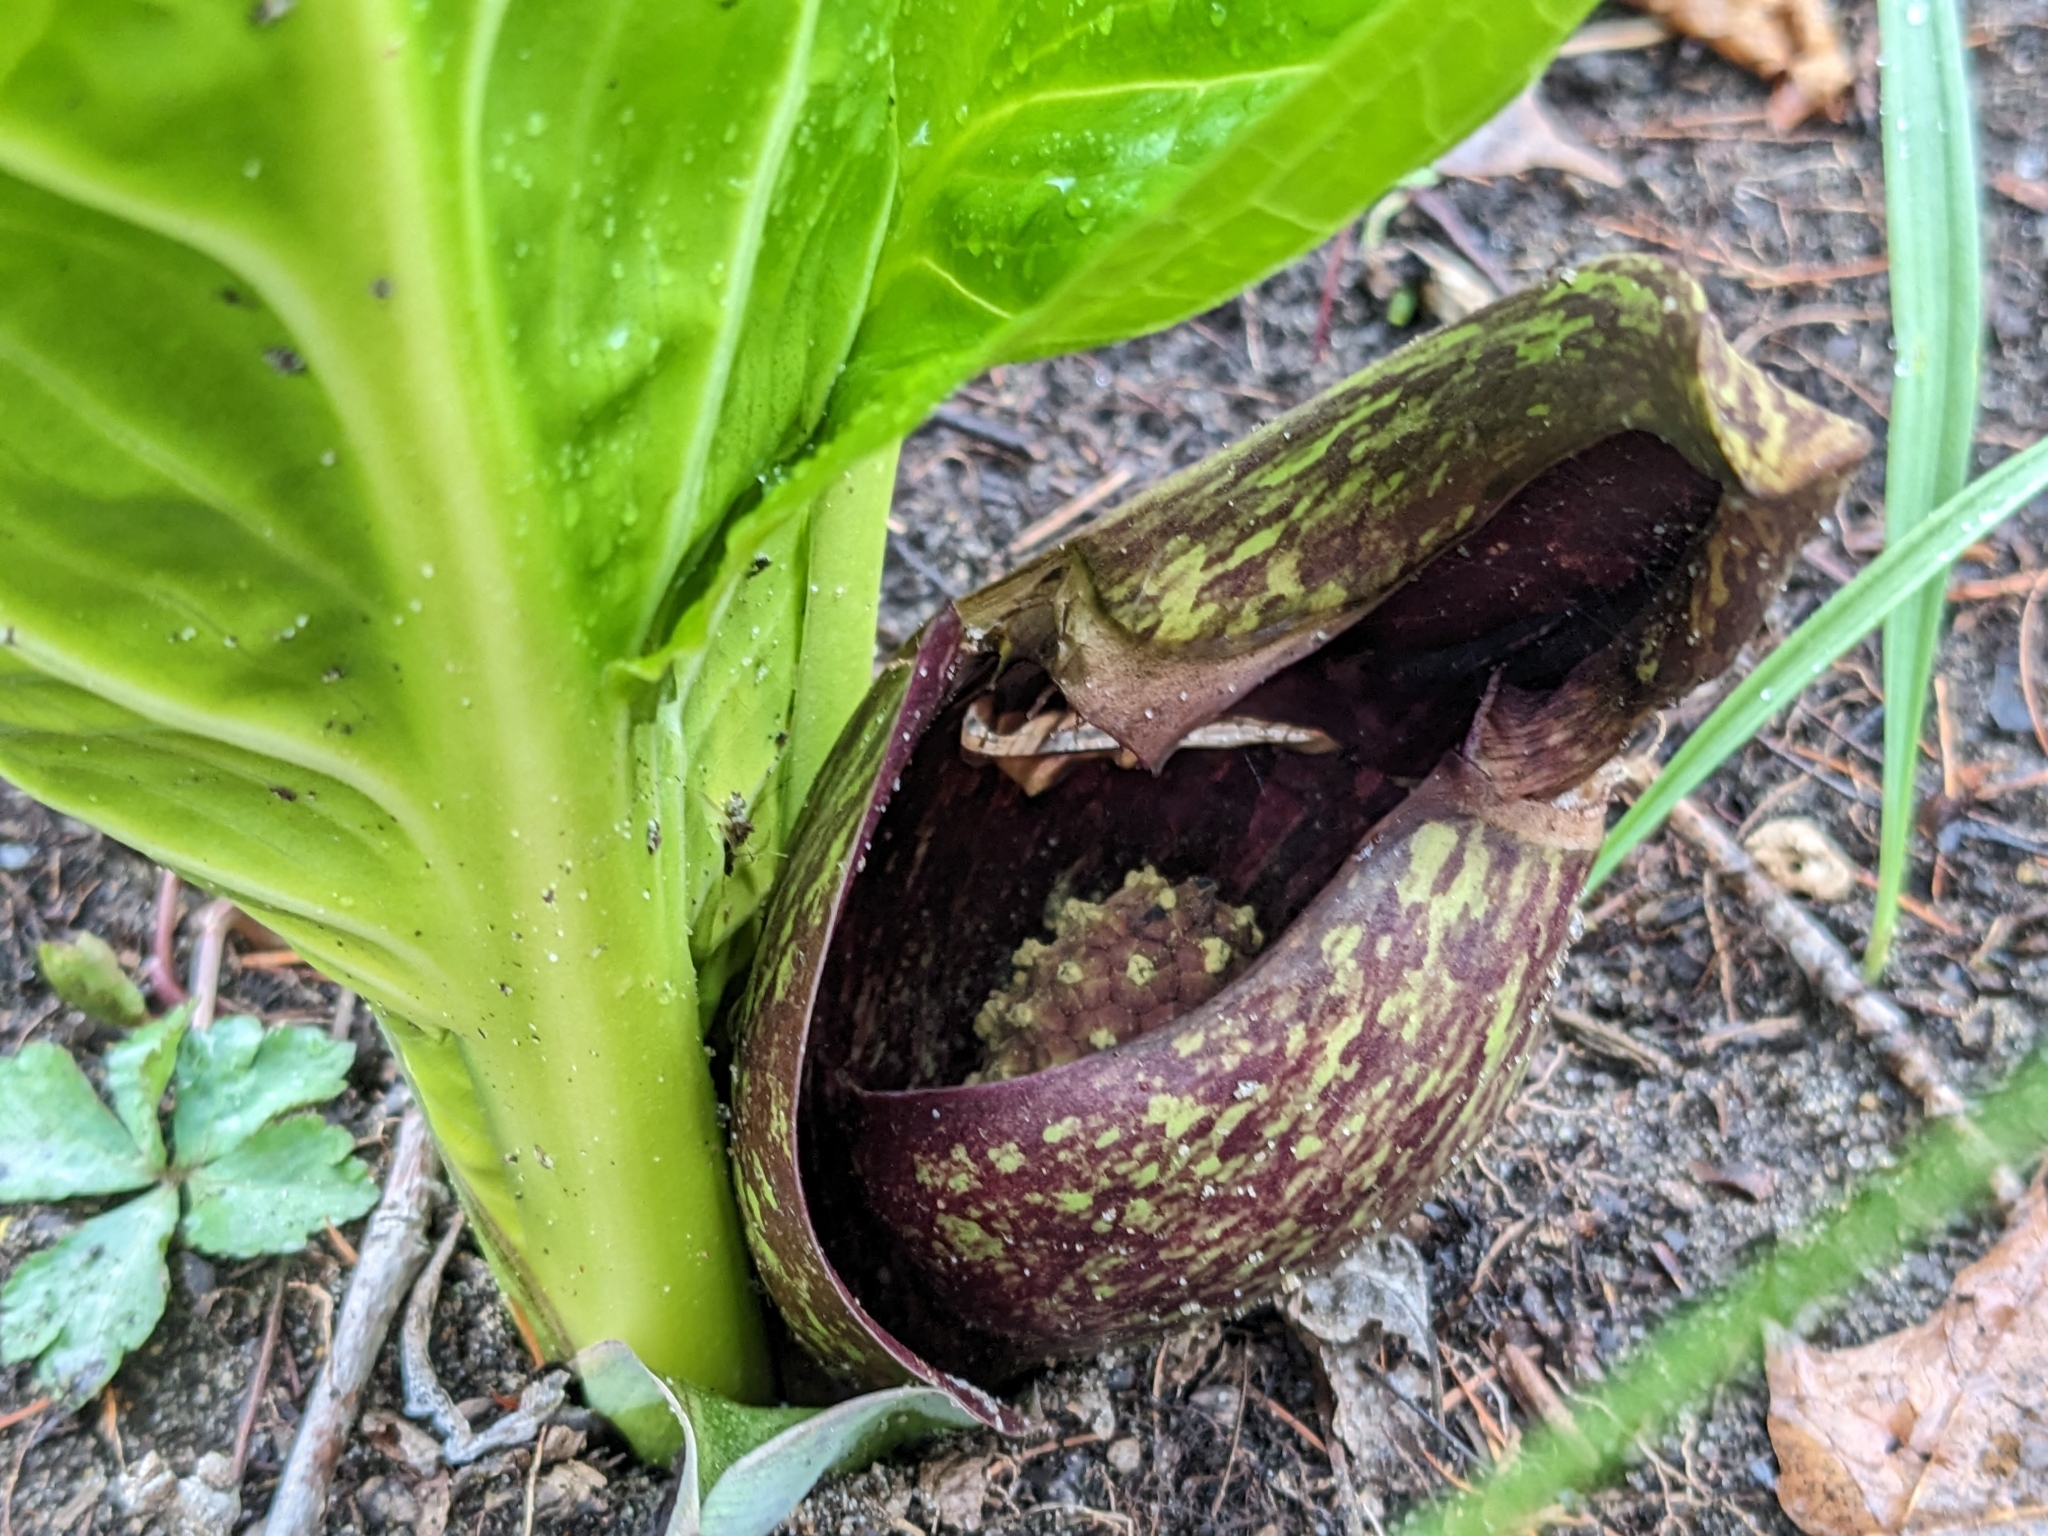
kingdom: Plantae
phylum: Tracheophyta
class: Liliopsida
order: Alismatales
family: Araceae
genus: Symplocarpus
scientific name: Symplocarpus foetidus
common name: Eastern skunk cabbage
